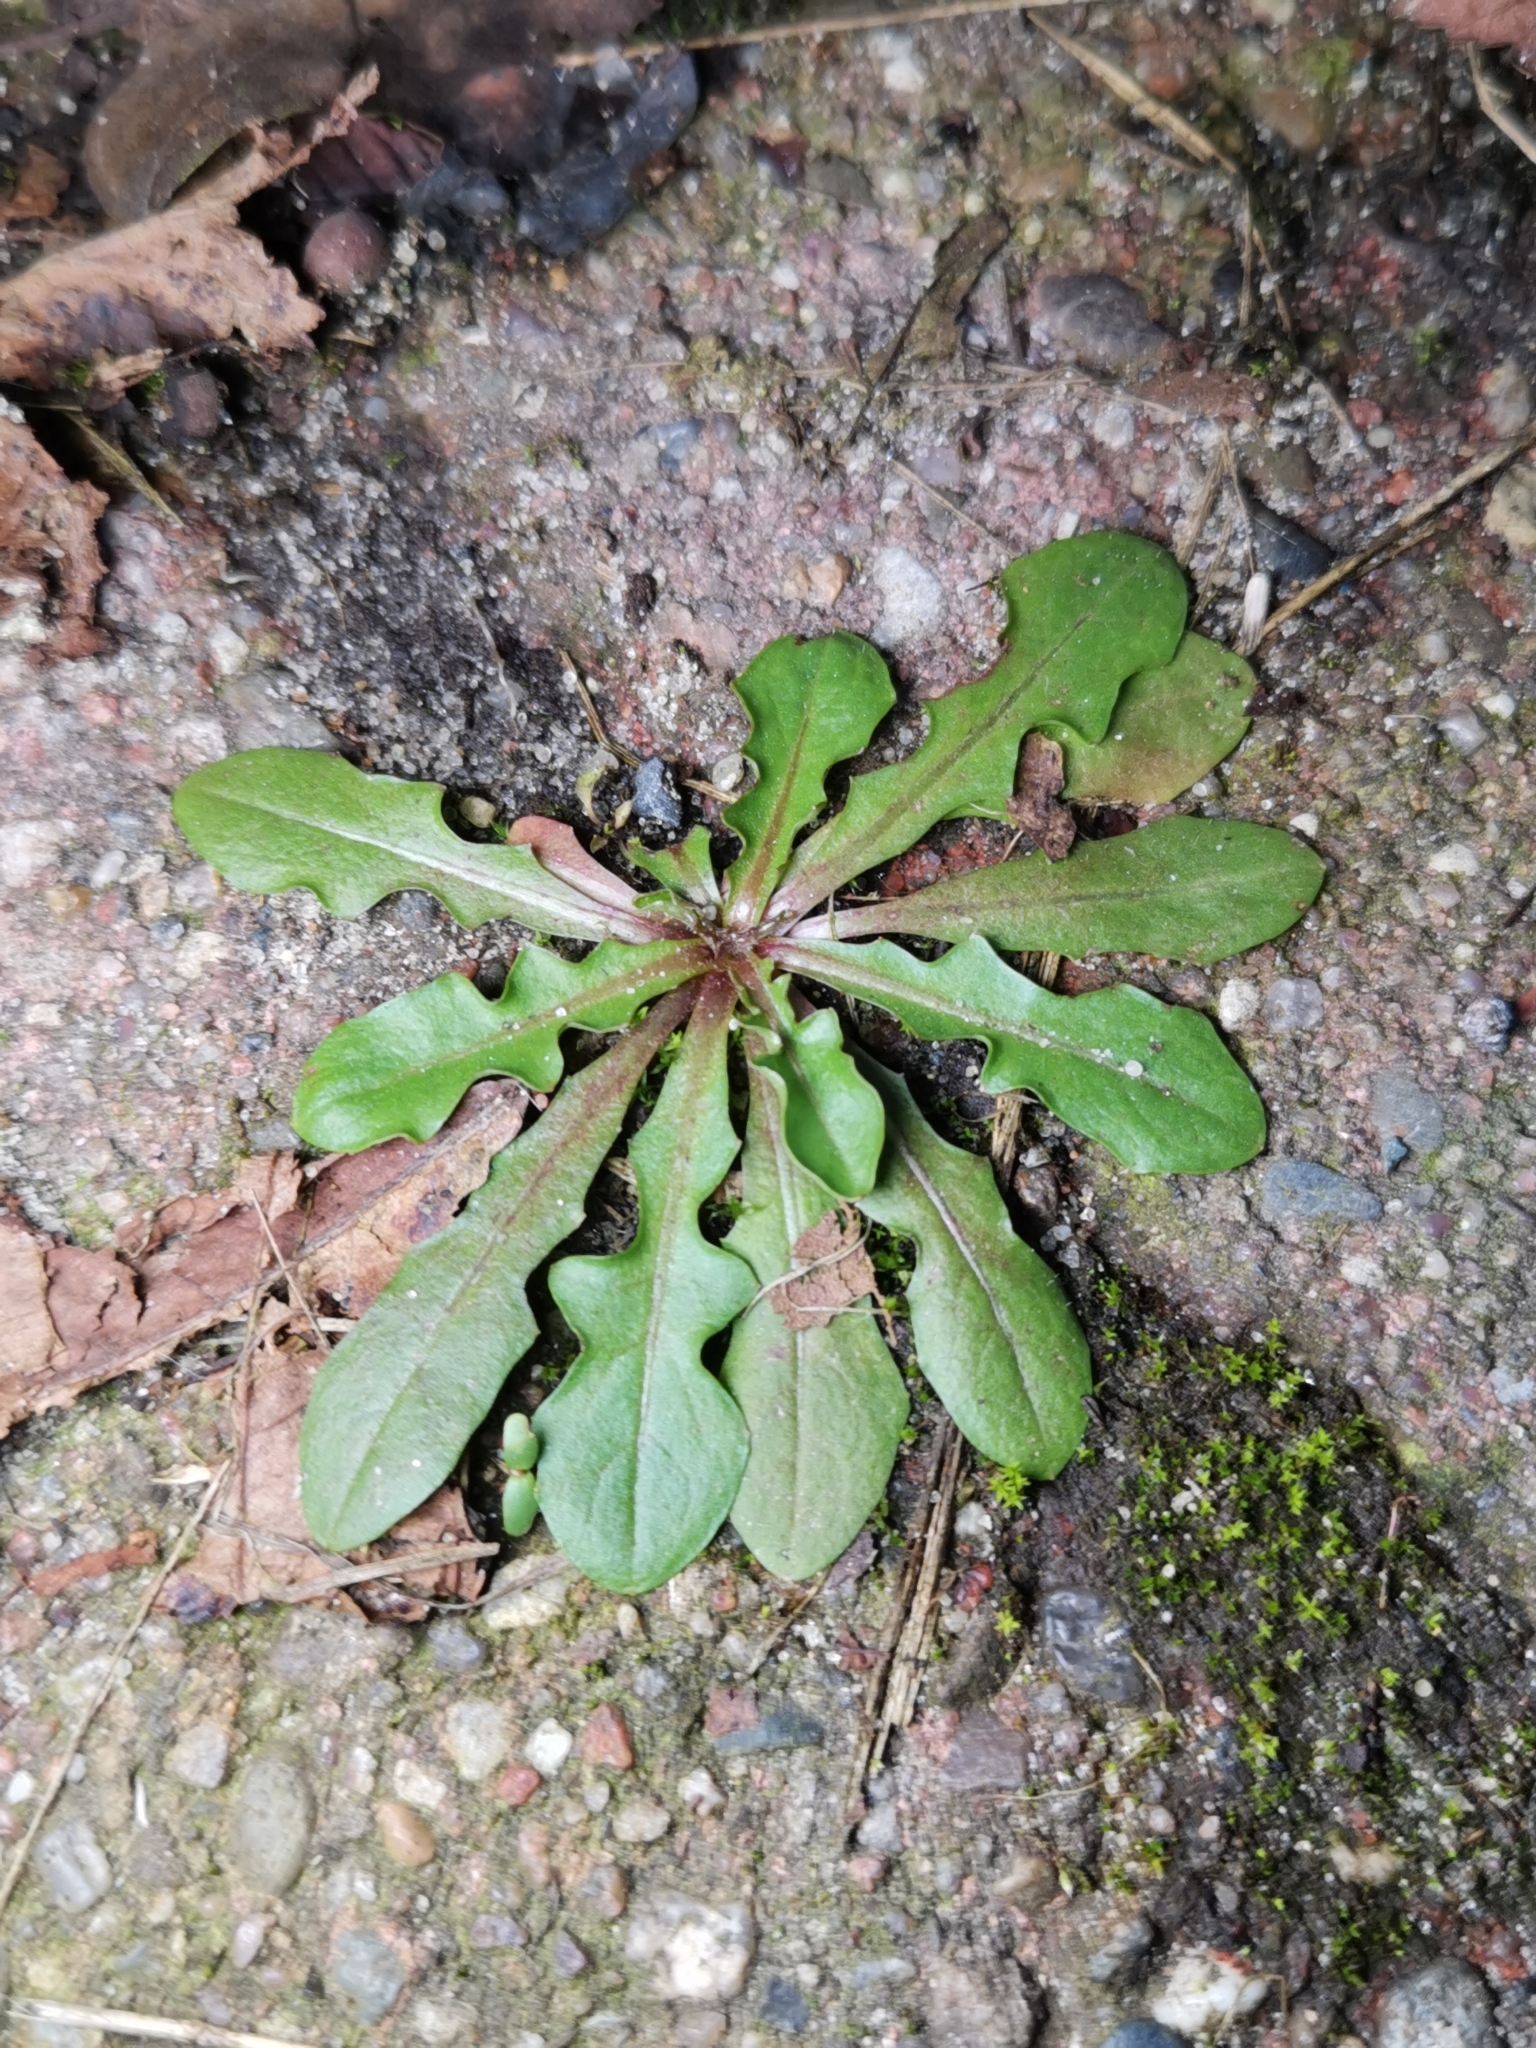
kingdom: Plantae
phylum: Tracheophyta
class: Magnoliopsida
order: Asterales
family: Asteraceae
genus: Hypochaeris
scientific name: Hypochaeris radicata
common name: Flatweed
